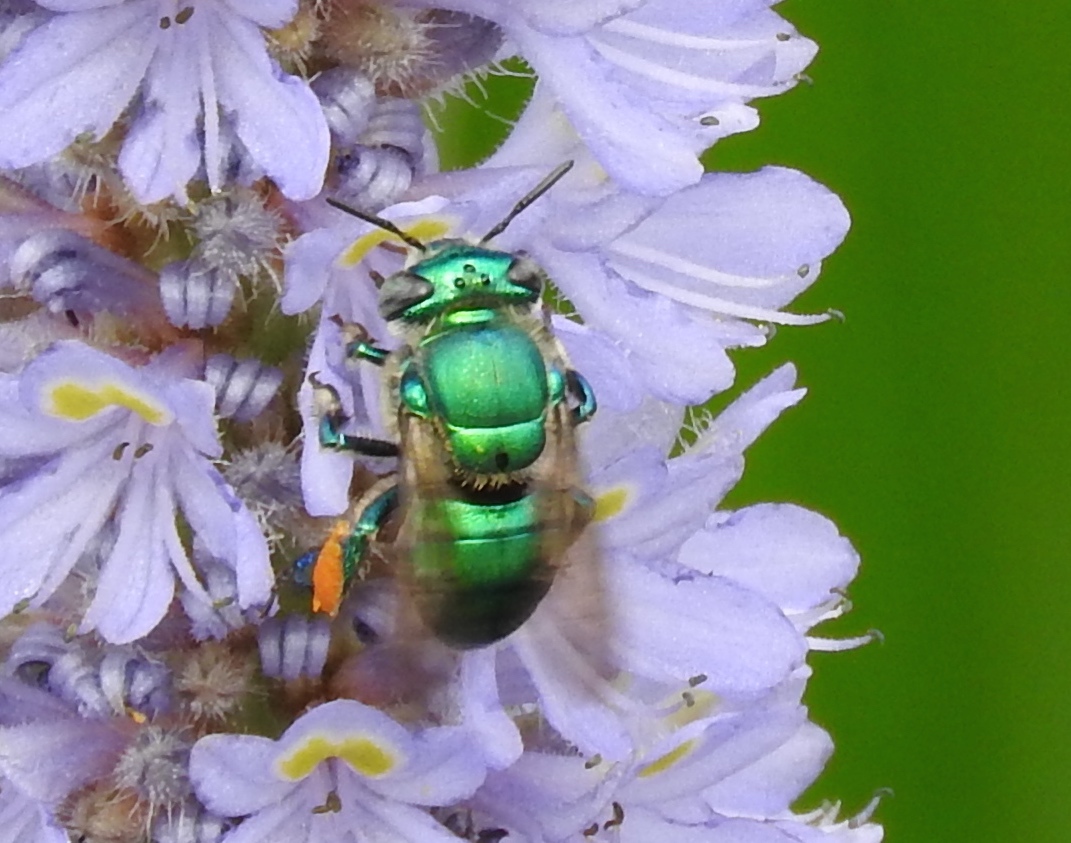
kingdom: Animalia
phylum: Arthropoda
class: Insecta
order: Hymenoptera
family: Apidae
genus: Euglossa
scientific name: Euglossa
